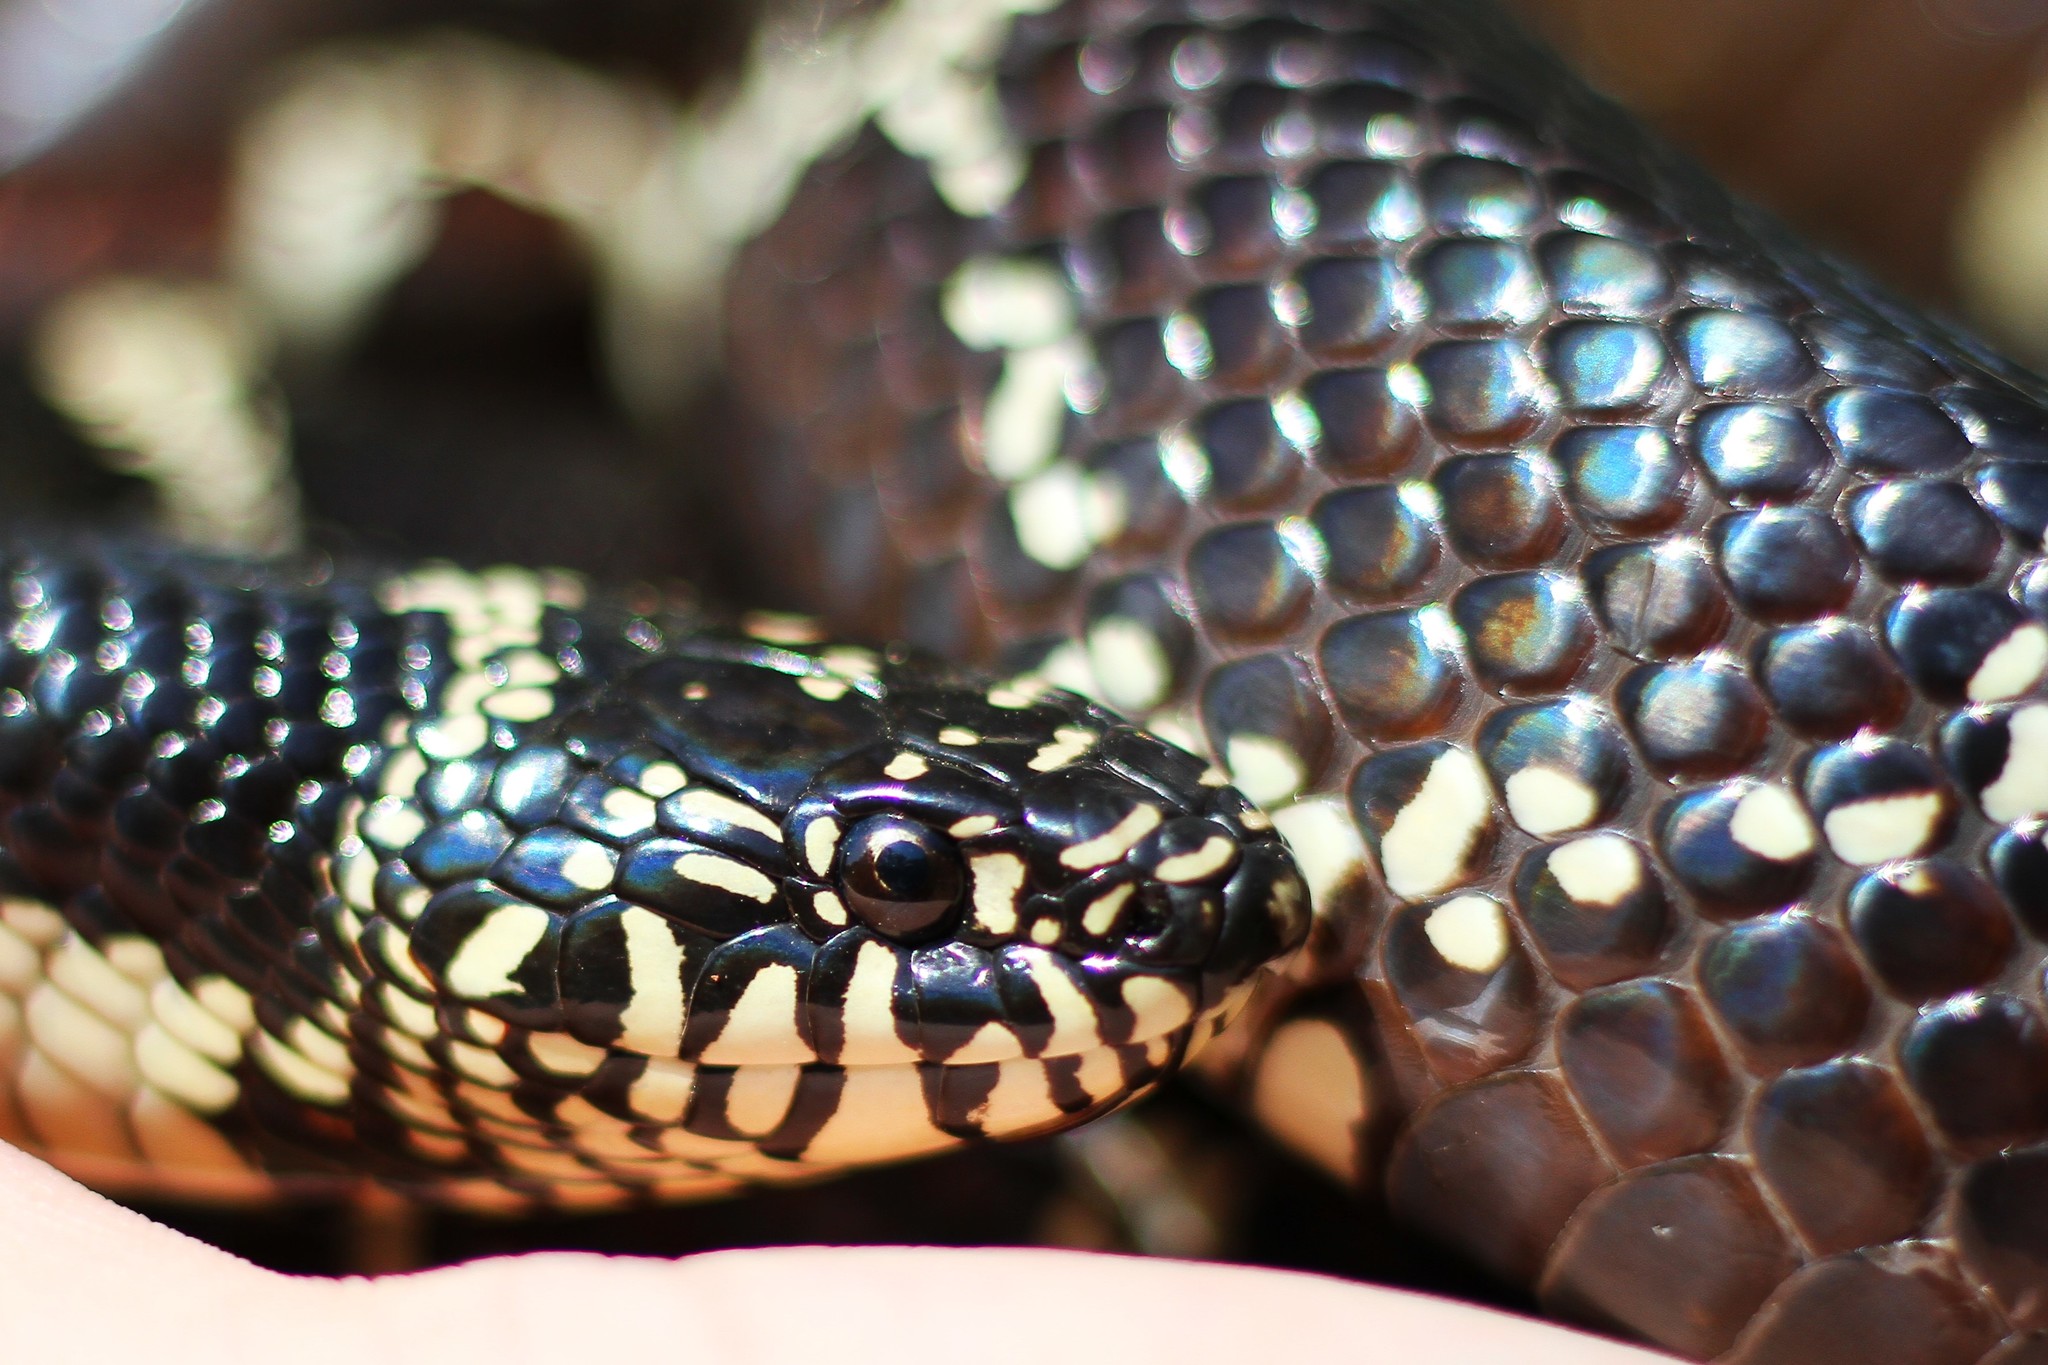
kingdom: Animalia
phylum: Chordata
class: Squamata
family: Colubridae
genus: Lampropeltis
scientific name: Lampropeltis getula
